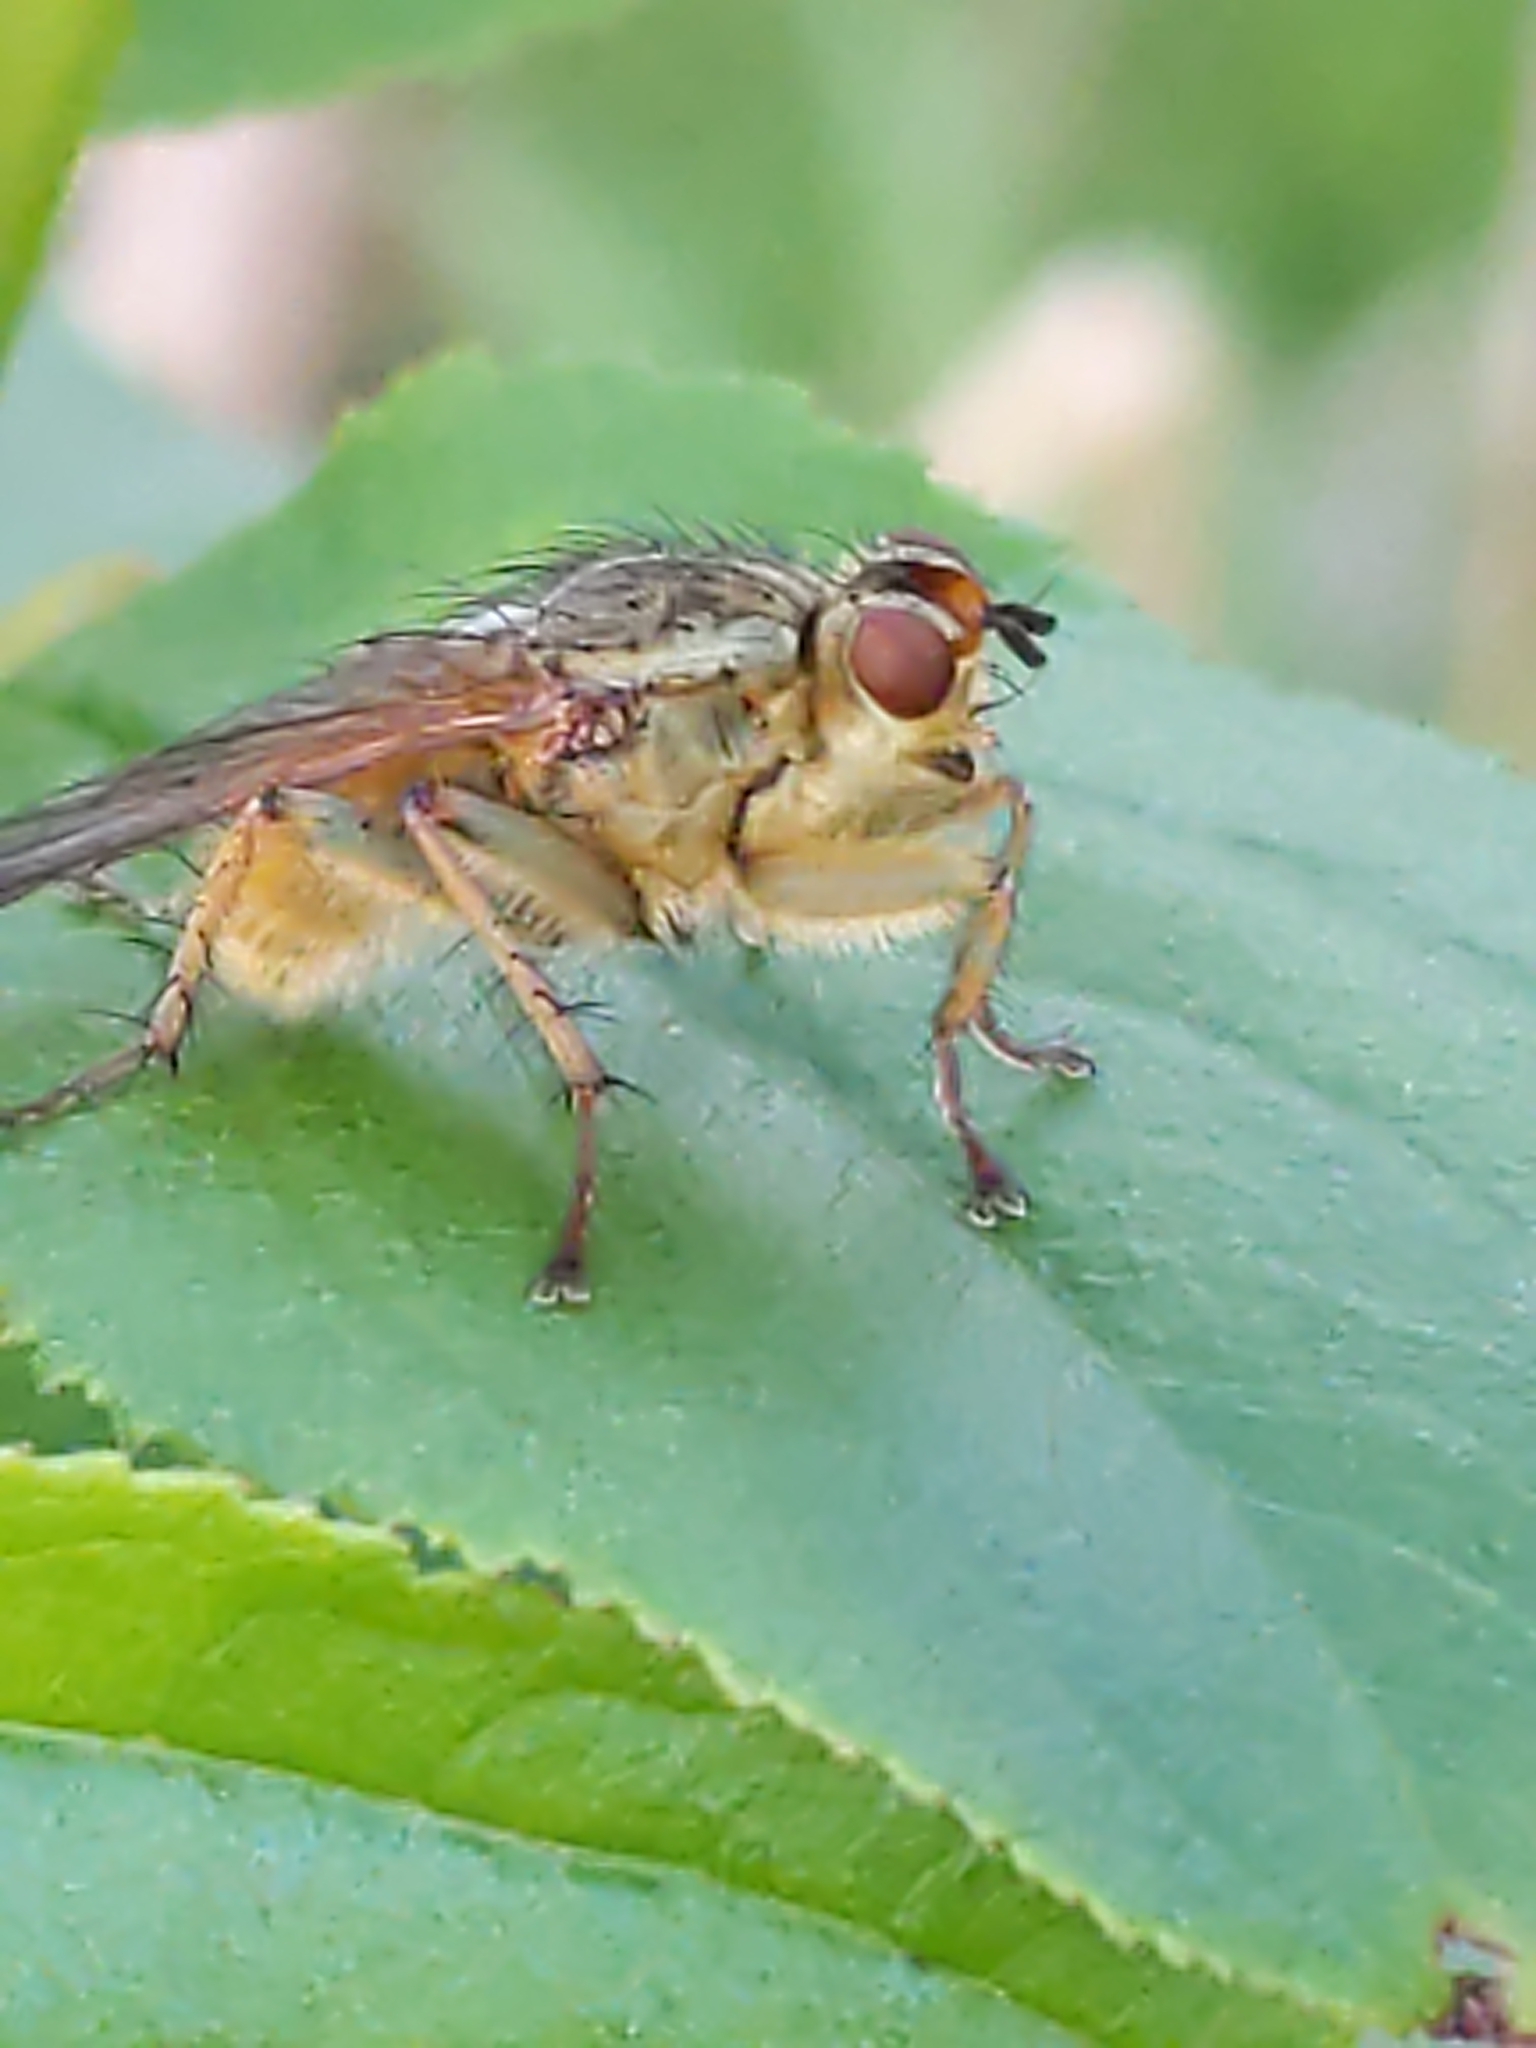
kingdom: Animalia
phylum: Arthropoda
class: Insecta
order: Diptera
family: Scathophagidae
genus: Scathophaga
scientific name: Scathophaga stercoraria
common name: Yellow dung fly
